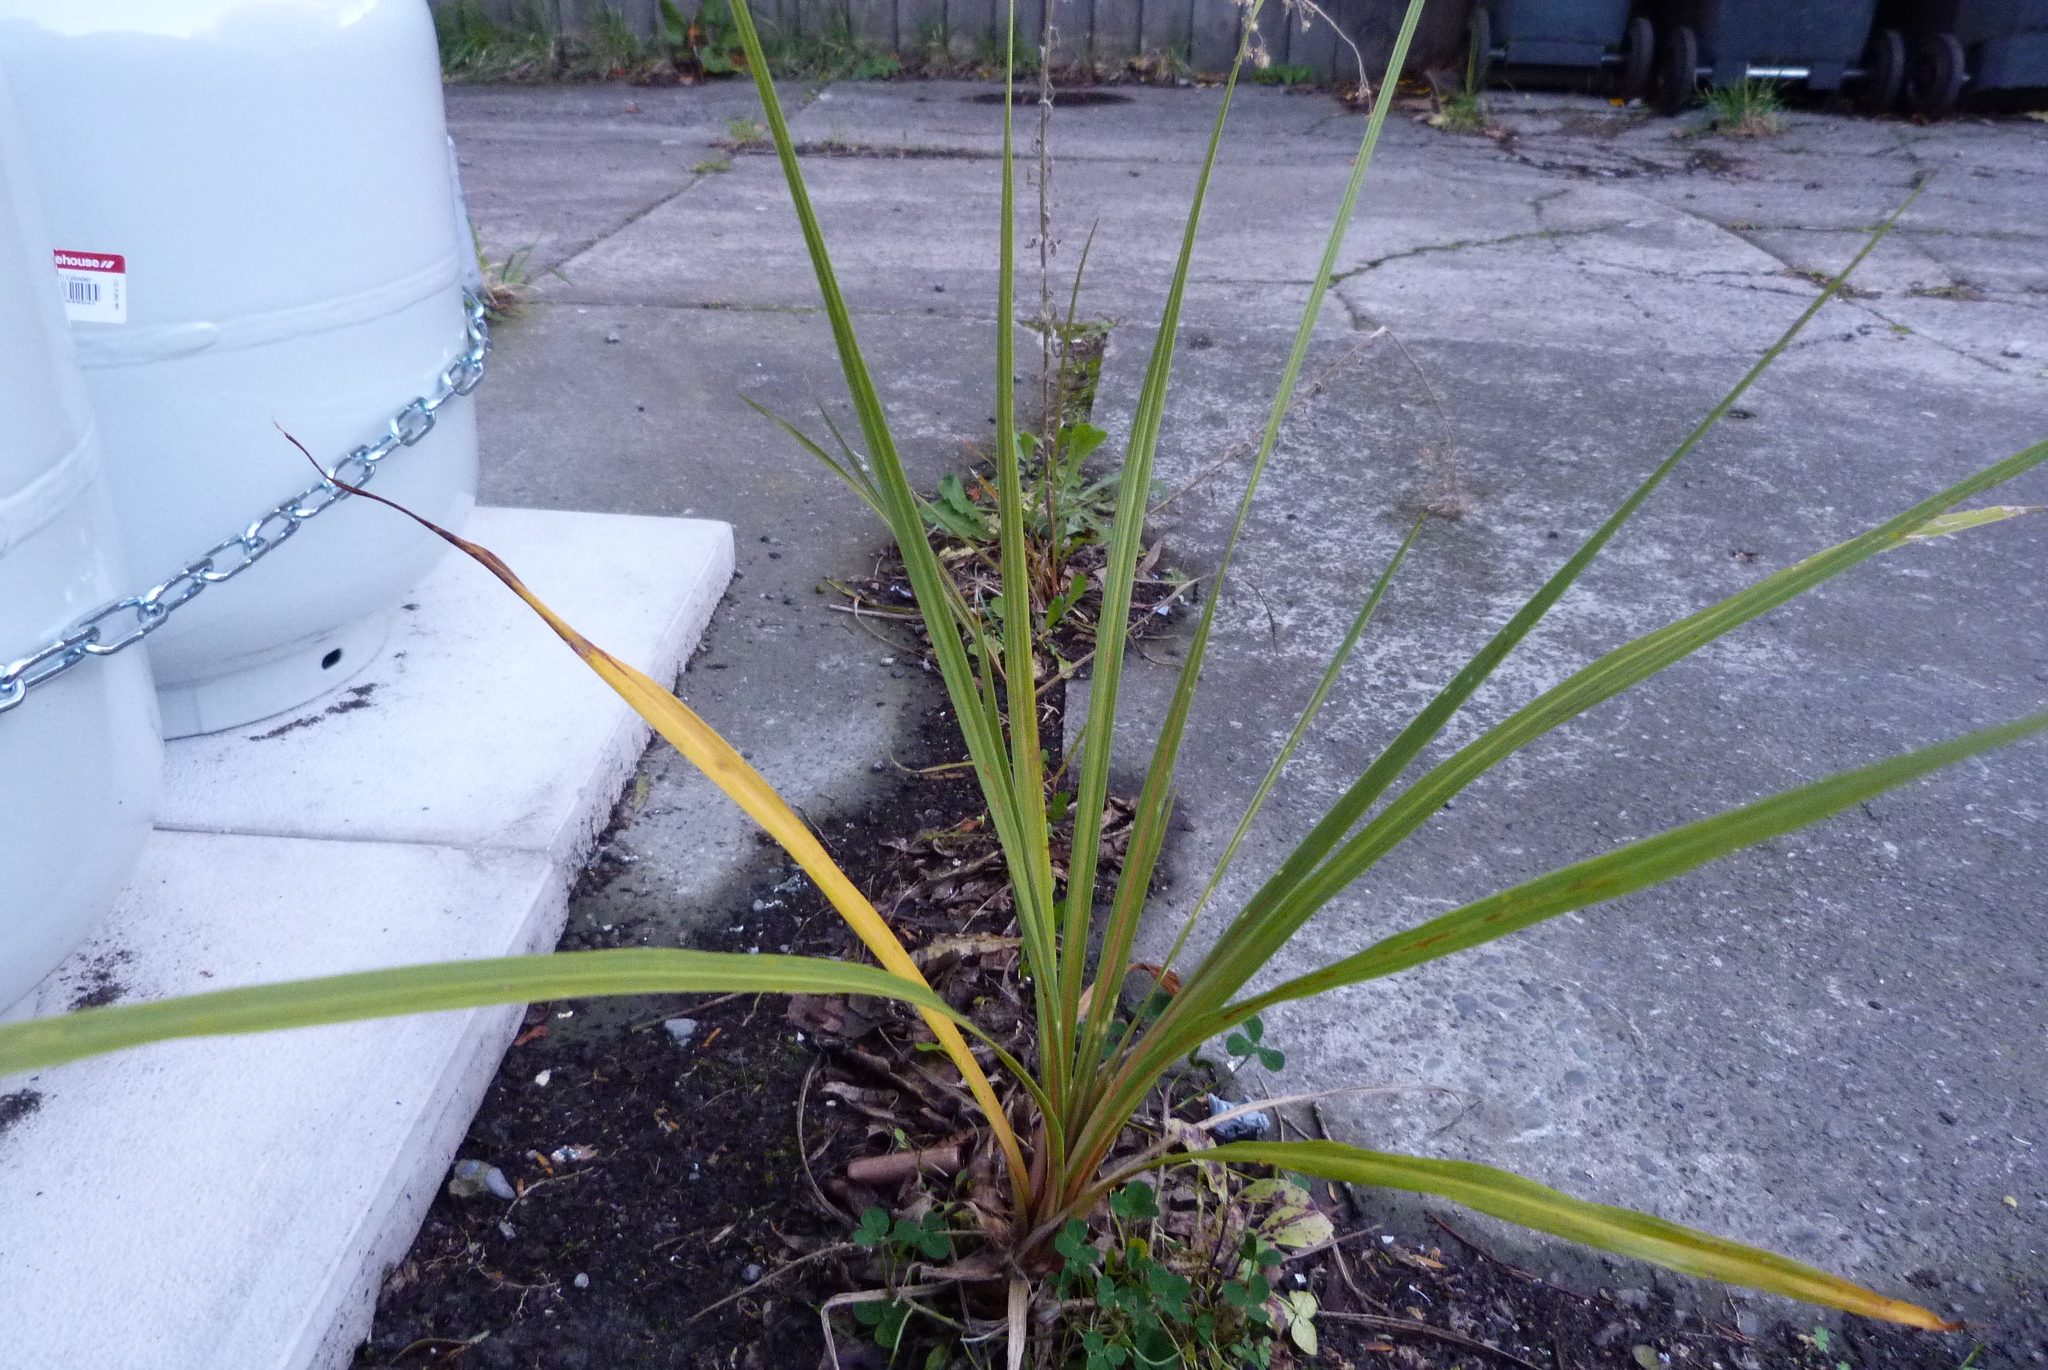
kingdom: Plantae
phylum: Tracheophyta
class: Liliopsida
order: Asparagales
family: Asparagaceae
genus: Cordyline
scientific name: Cordyline australis
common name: Cabbage-palm
